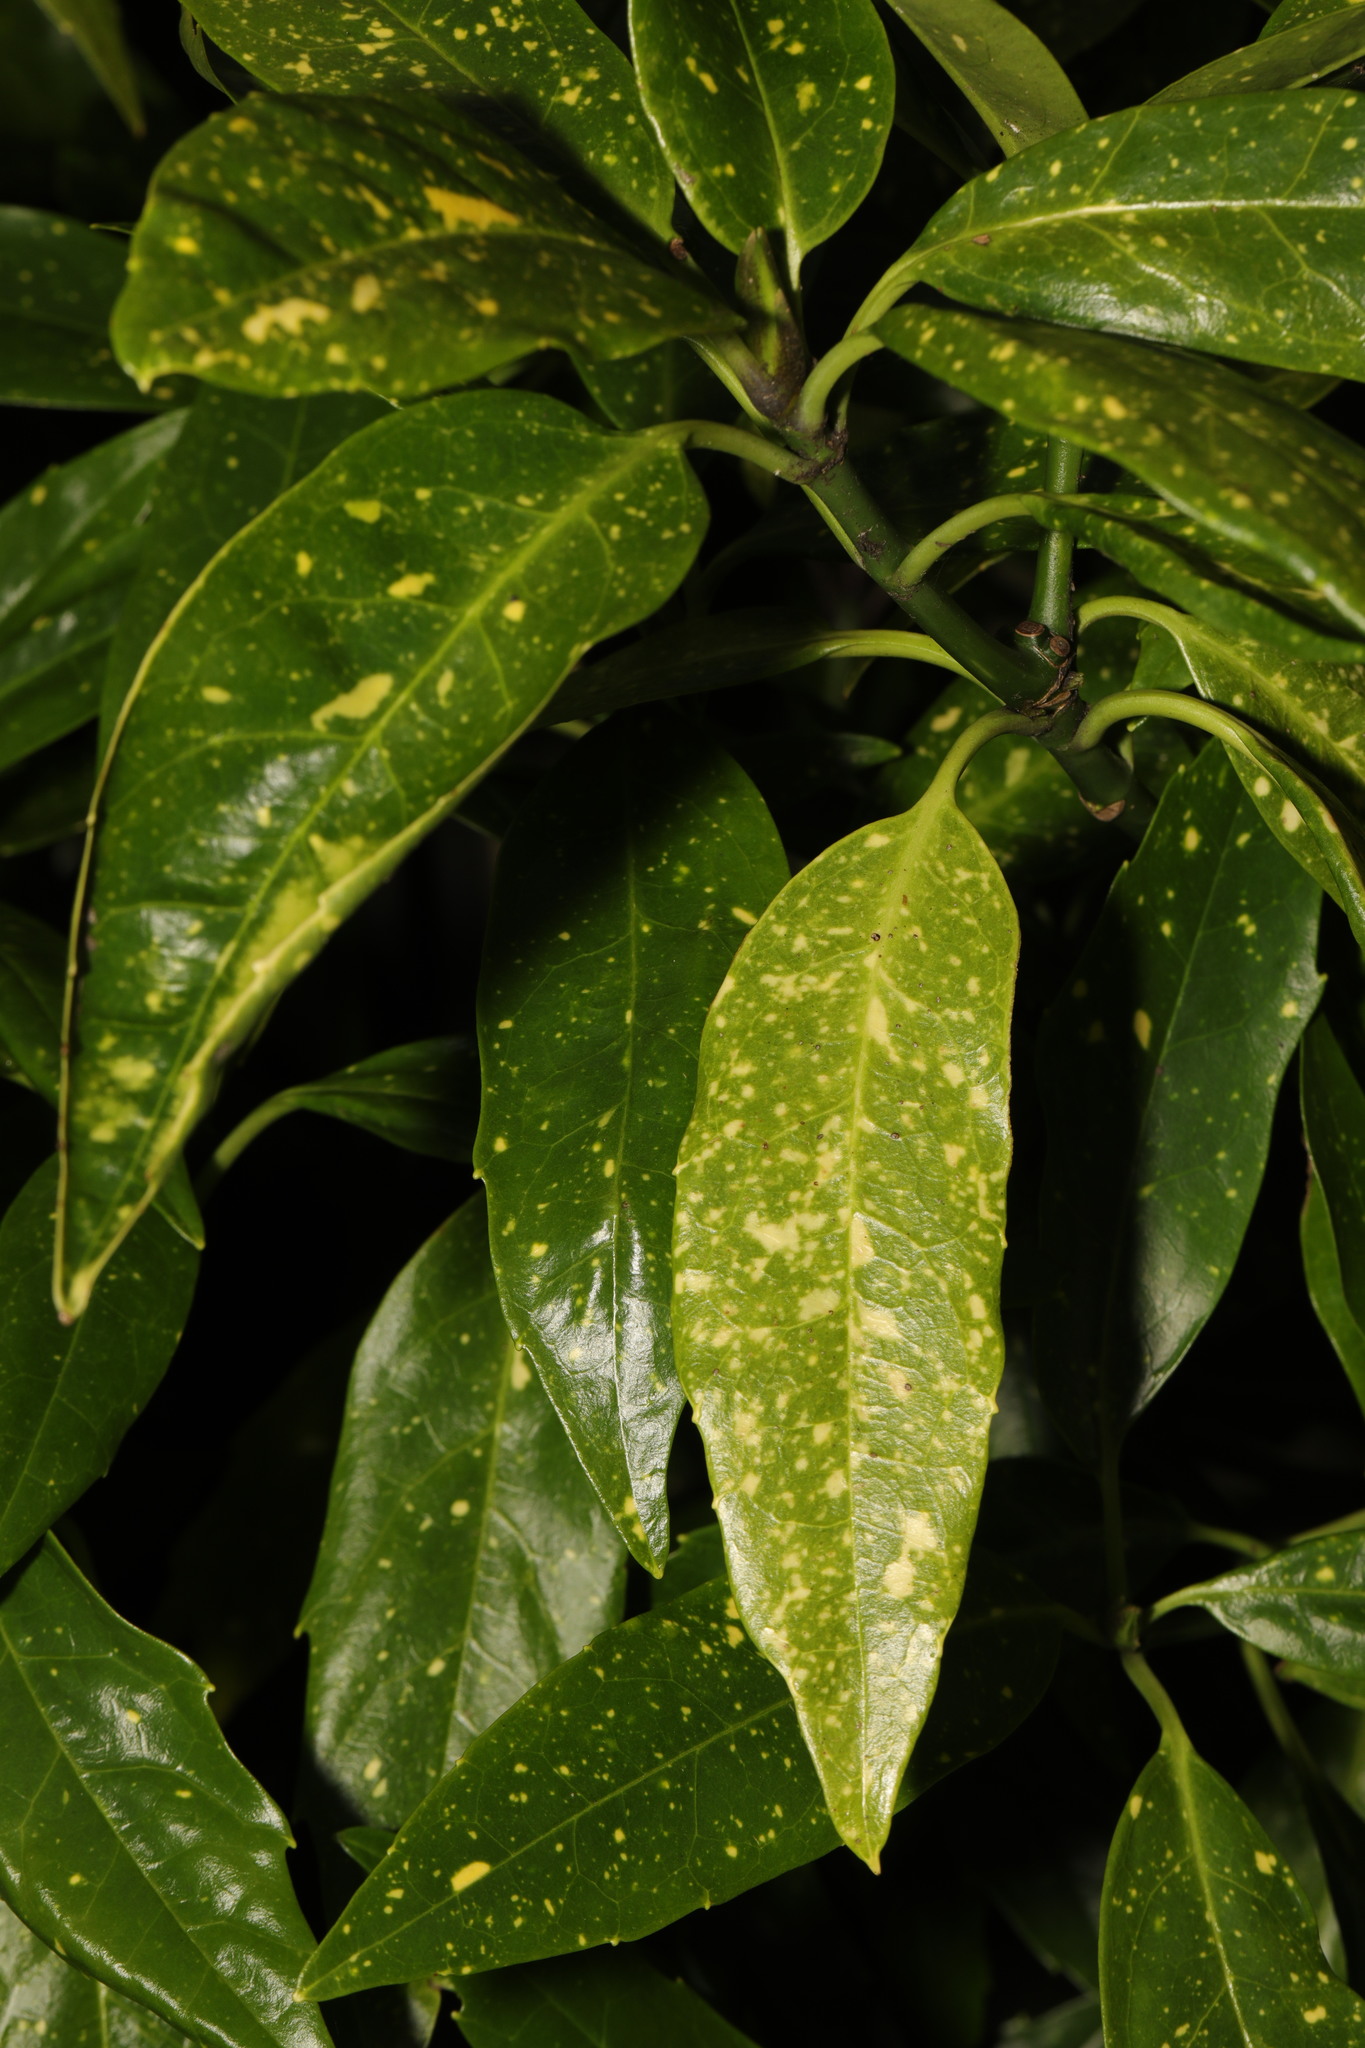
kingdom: Plantae
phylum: Tracheophyta
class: Magnoliopsida
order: Garryales
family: Garryaceae
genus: Aucuba
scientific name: Aucuba japonica
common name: Spotted-laurel
